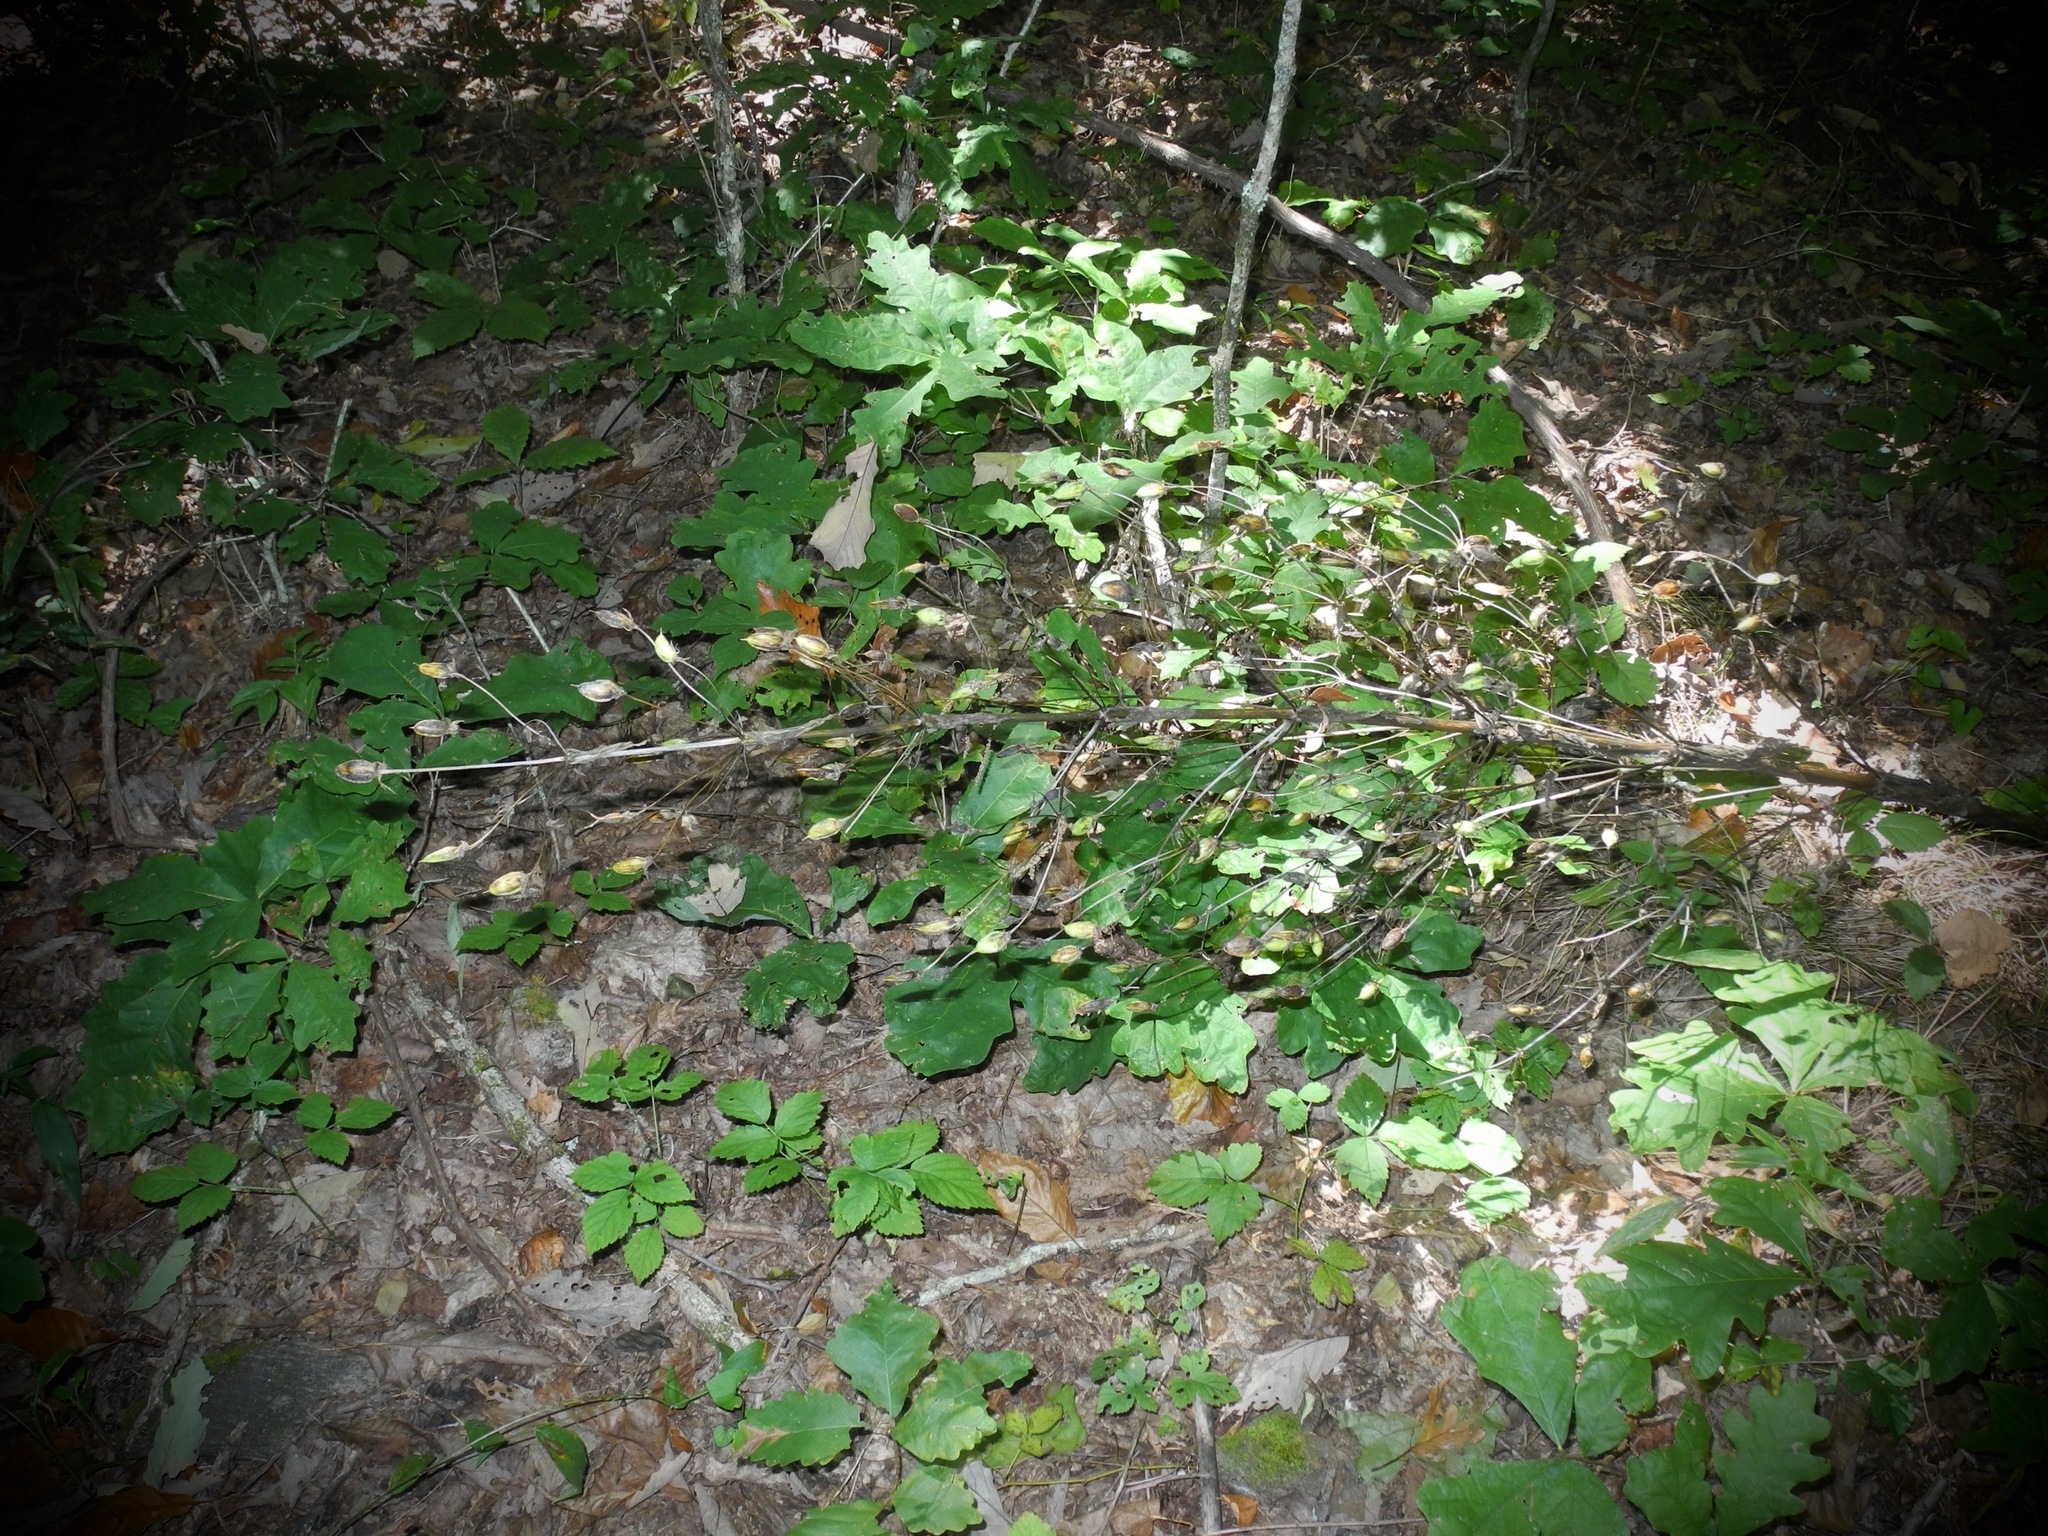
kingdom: Plantae
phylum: Tracheophyta
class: Magnoliopsida
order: Gentianales
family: Gentianaceae
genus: Frasera
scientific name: Frasera caroliniensis
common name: American columbo
